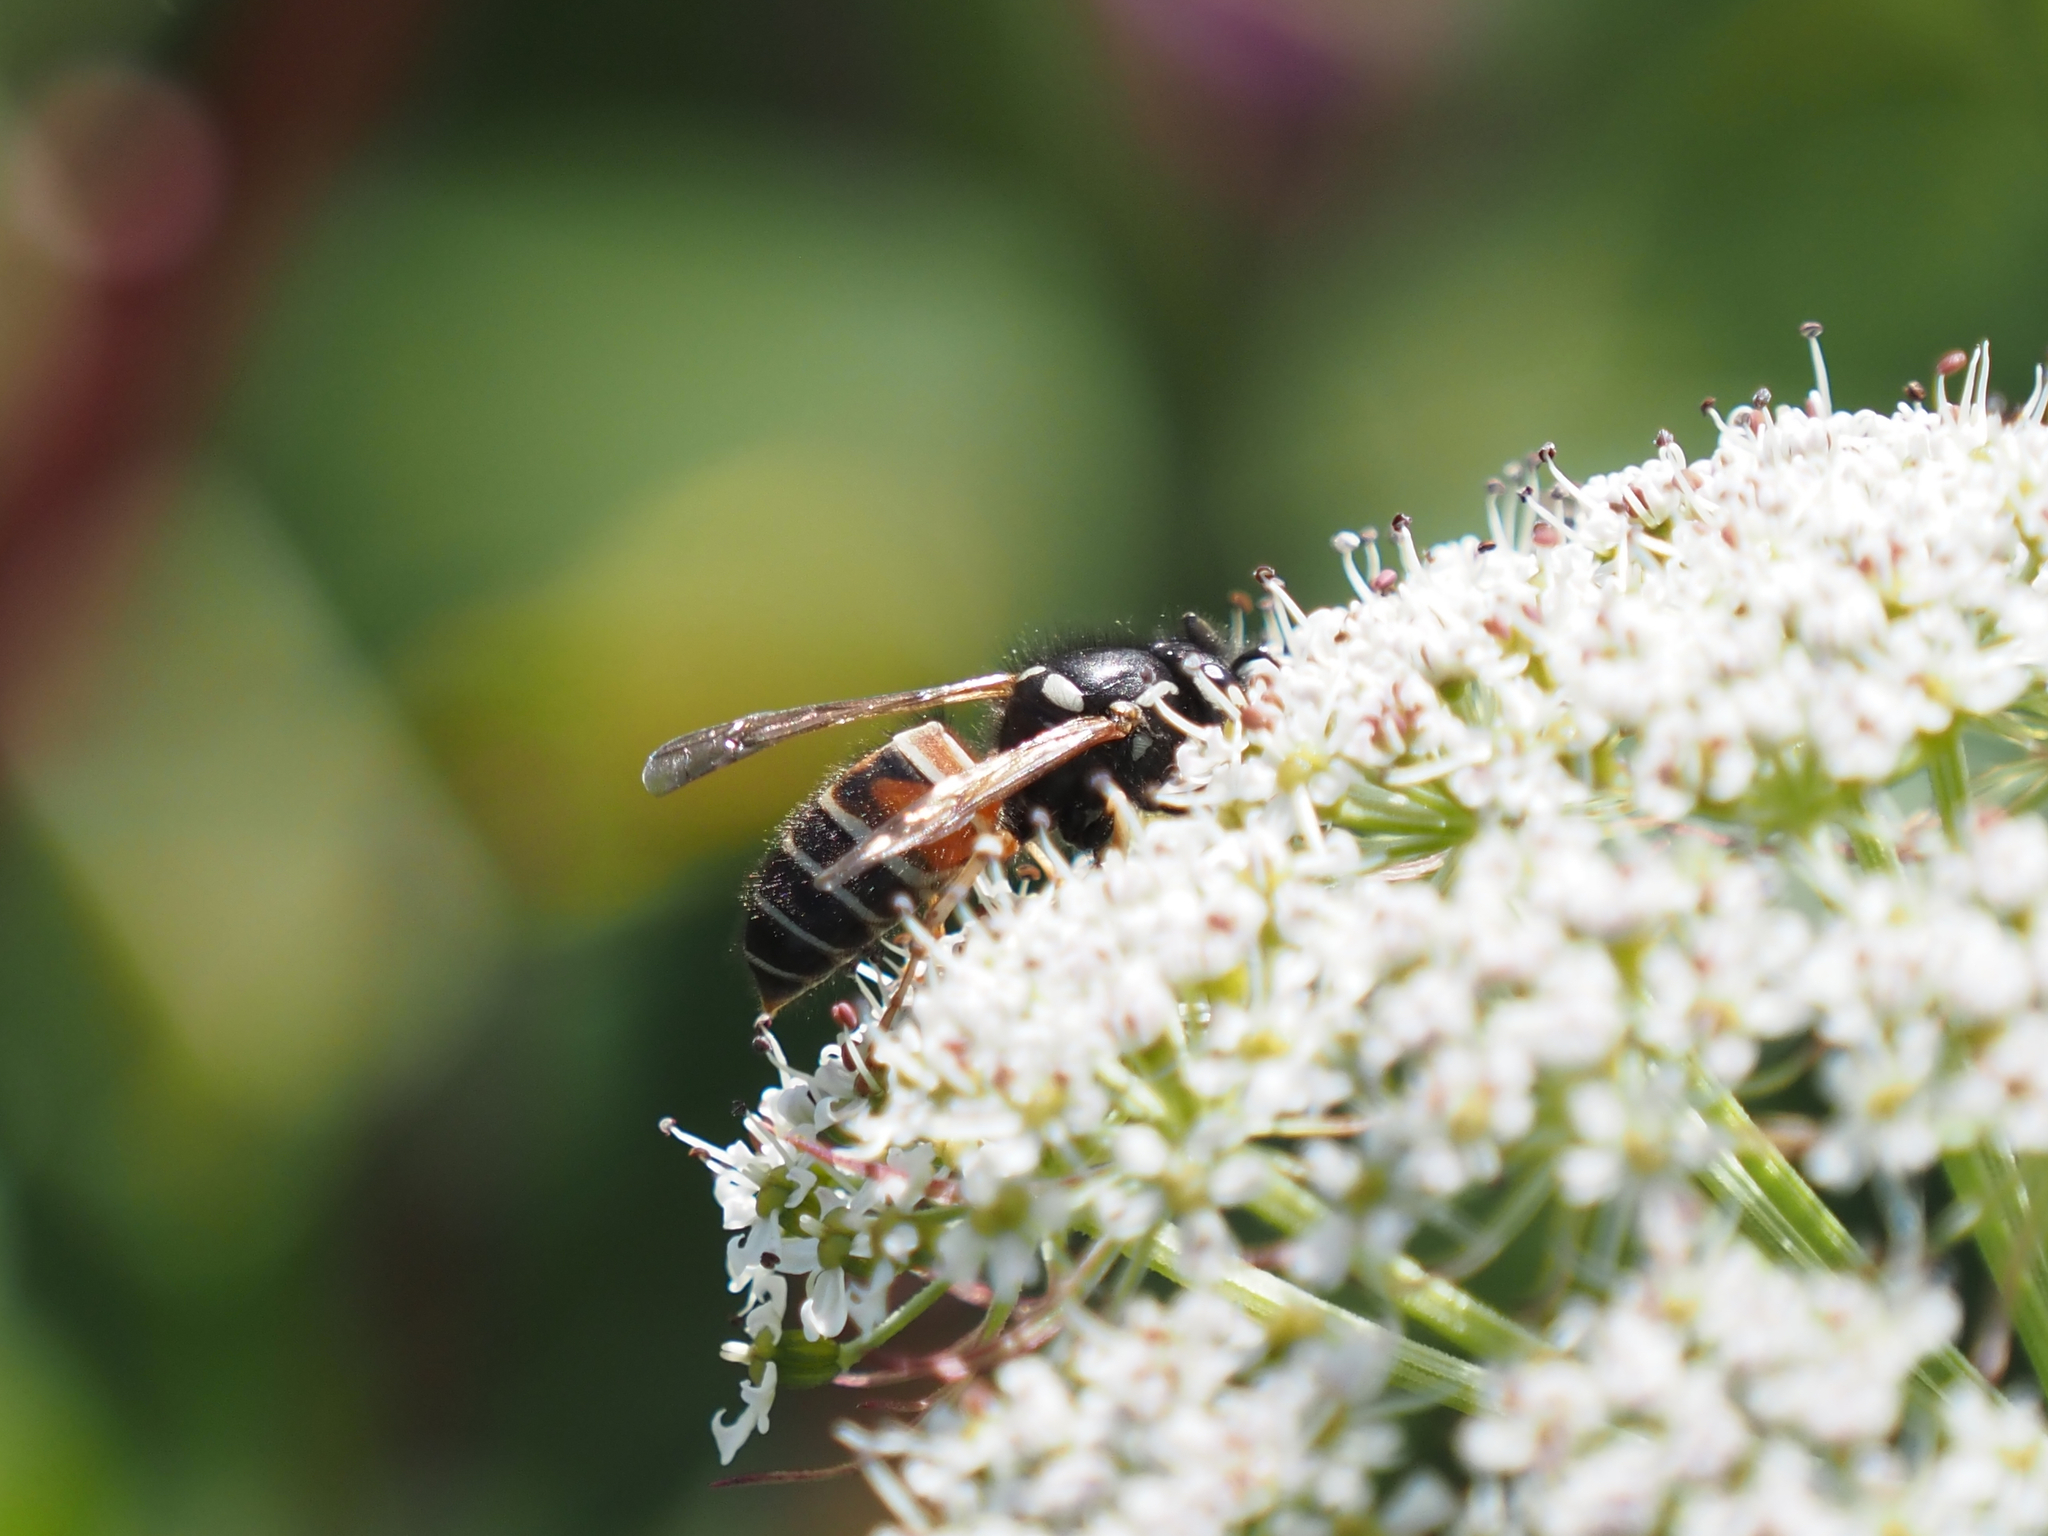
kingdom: Animalia
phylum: Arthropoda
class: Insecta
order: Hymenoptera
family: Vespidae
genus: Vespula
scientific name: Vespula intermedia
